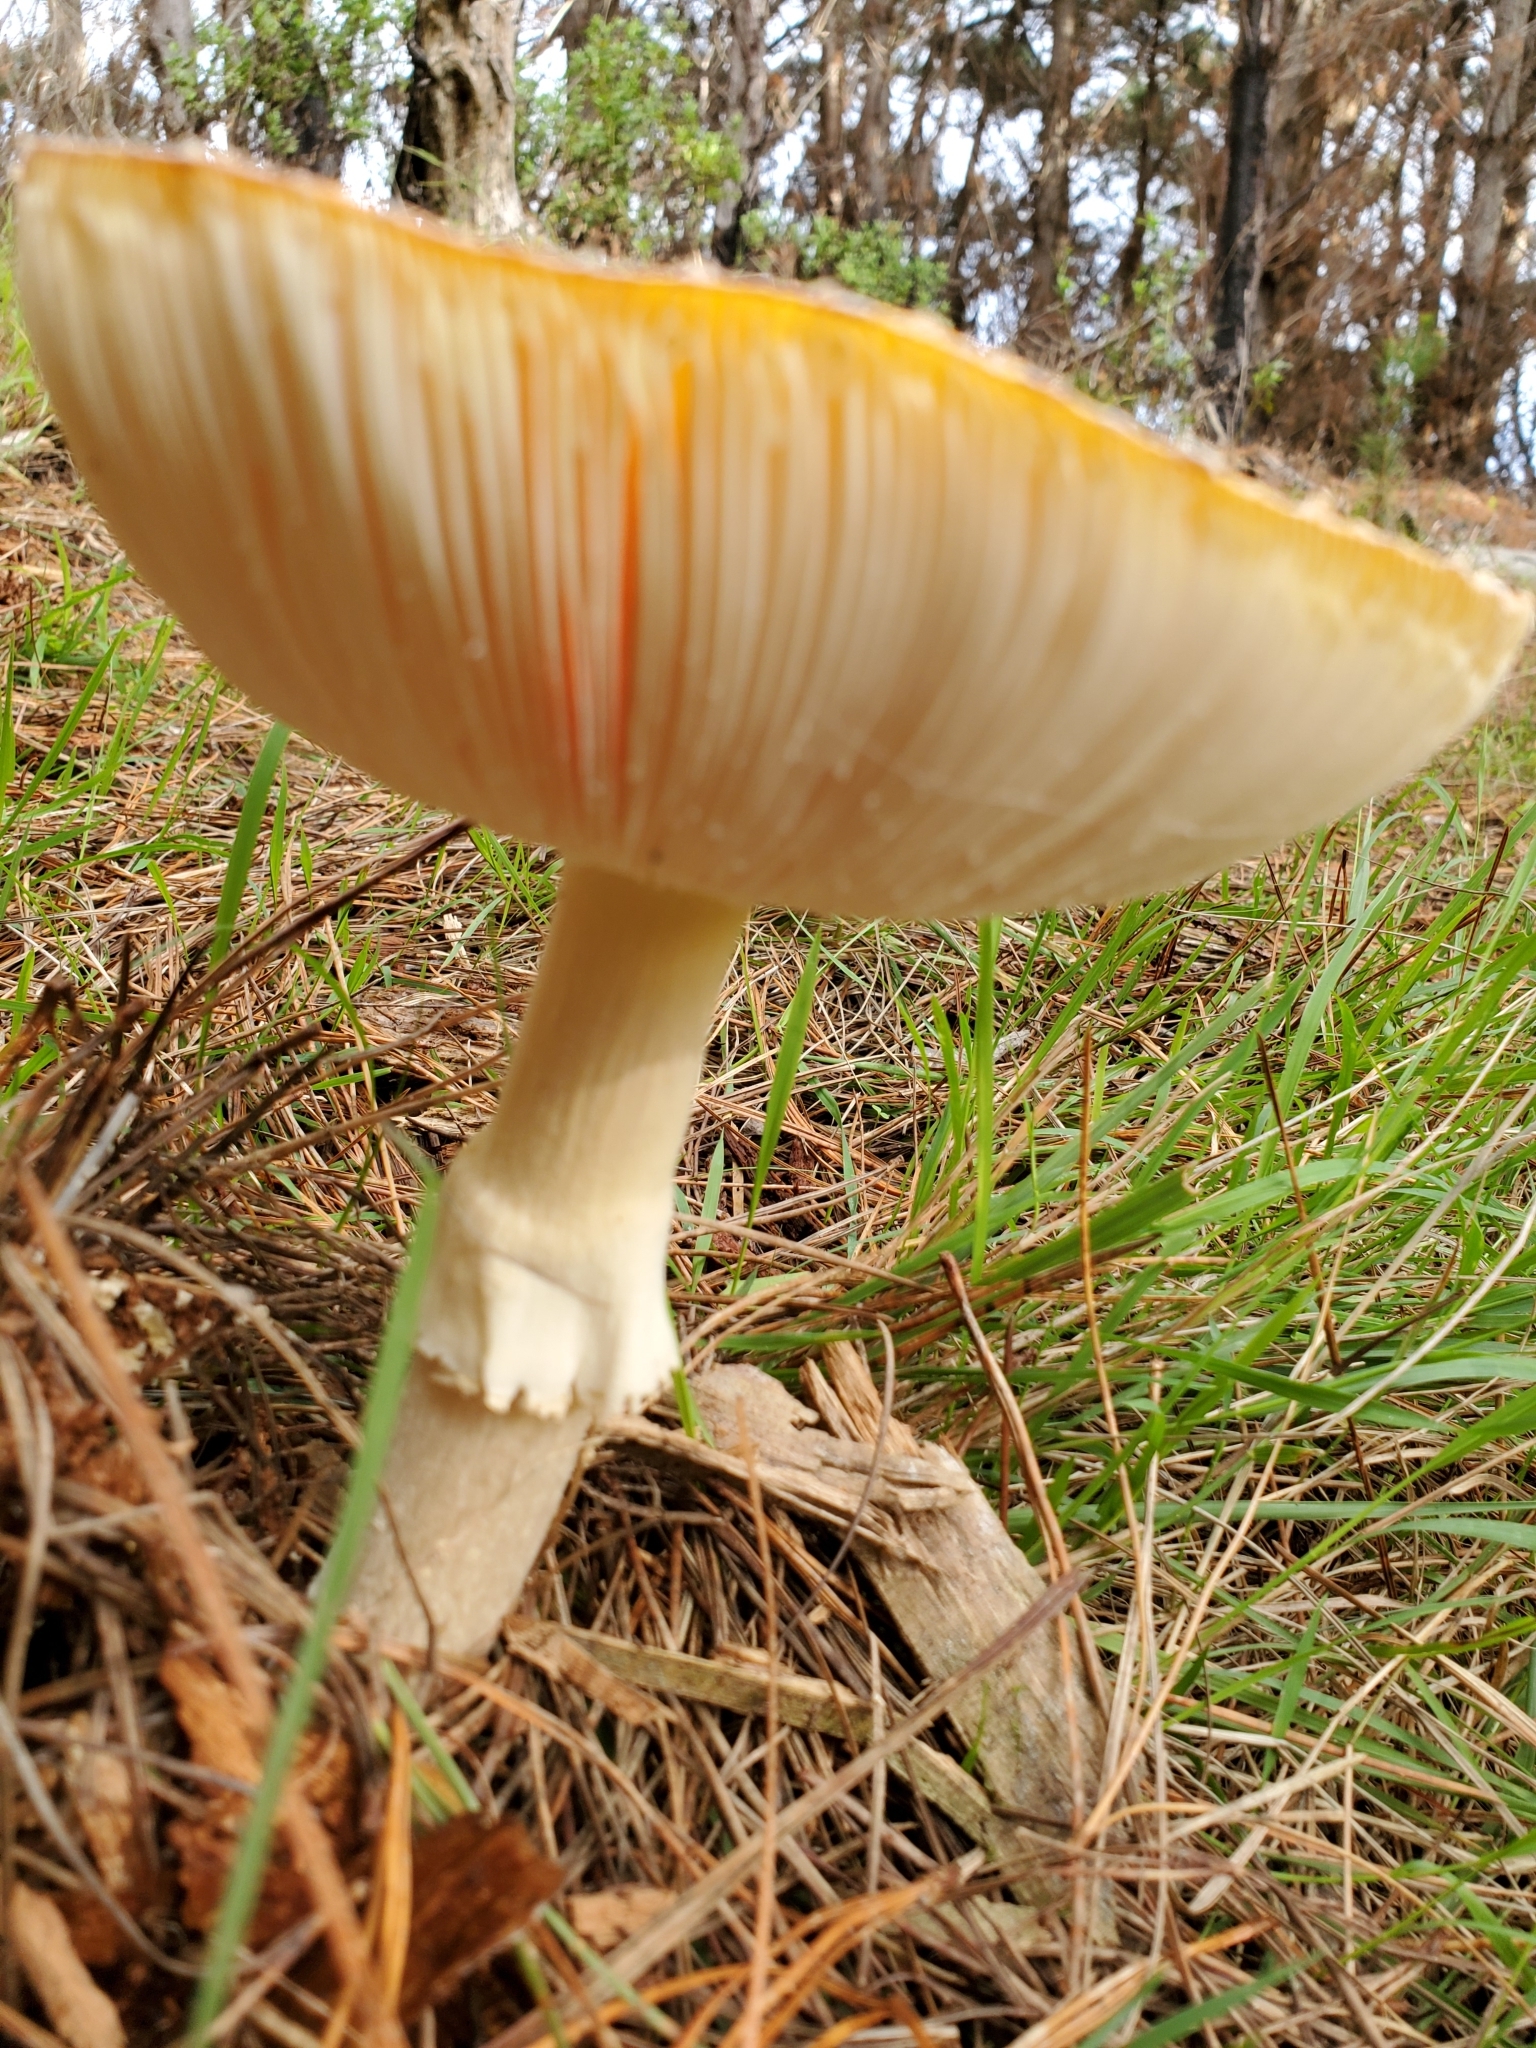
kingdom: Fungi
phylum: Basidiomycota
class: Agaricomycetes
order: Agaricales
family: Amanitaceae
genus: Amanita
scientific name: Amanita muscaria
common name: Fly agaric
